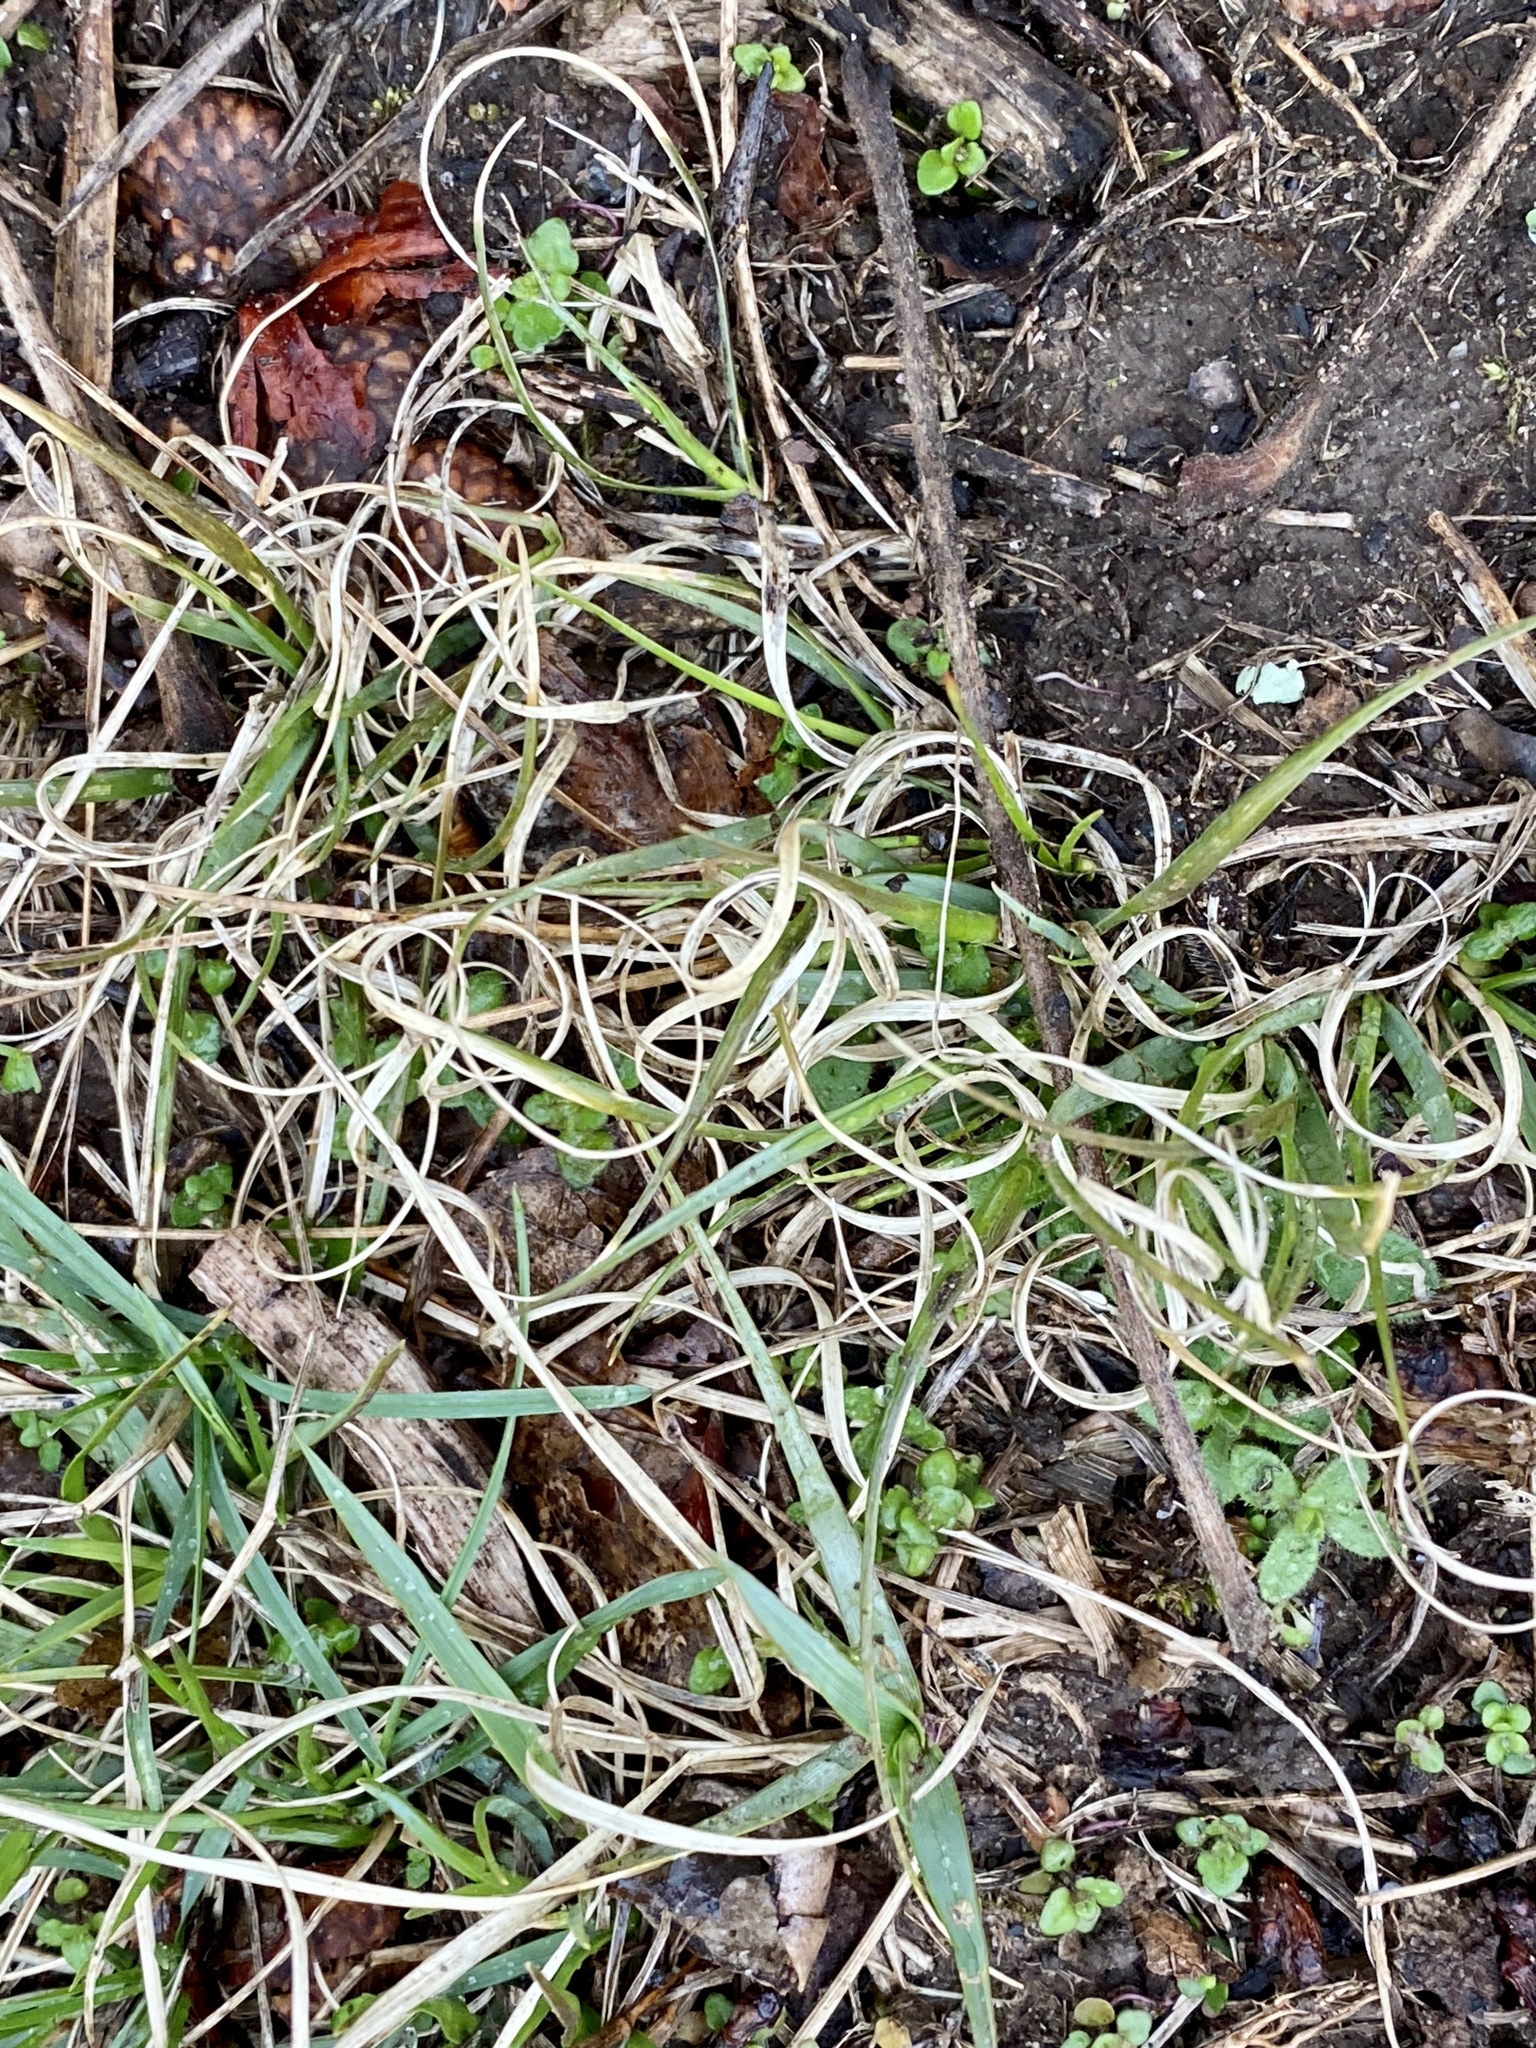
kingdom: Plantae
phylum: Tracheophyta
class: Liliopsida
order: Poales
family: Poaceae
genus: Danthonia
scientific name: Danthonia spicata
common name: Common wild oatgrass
